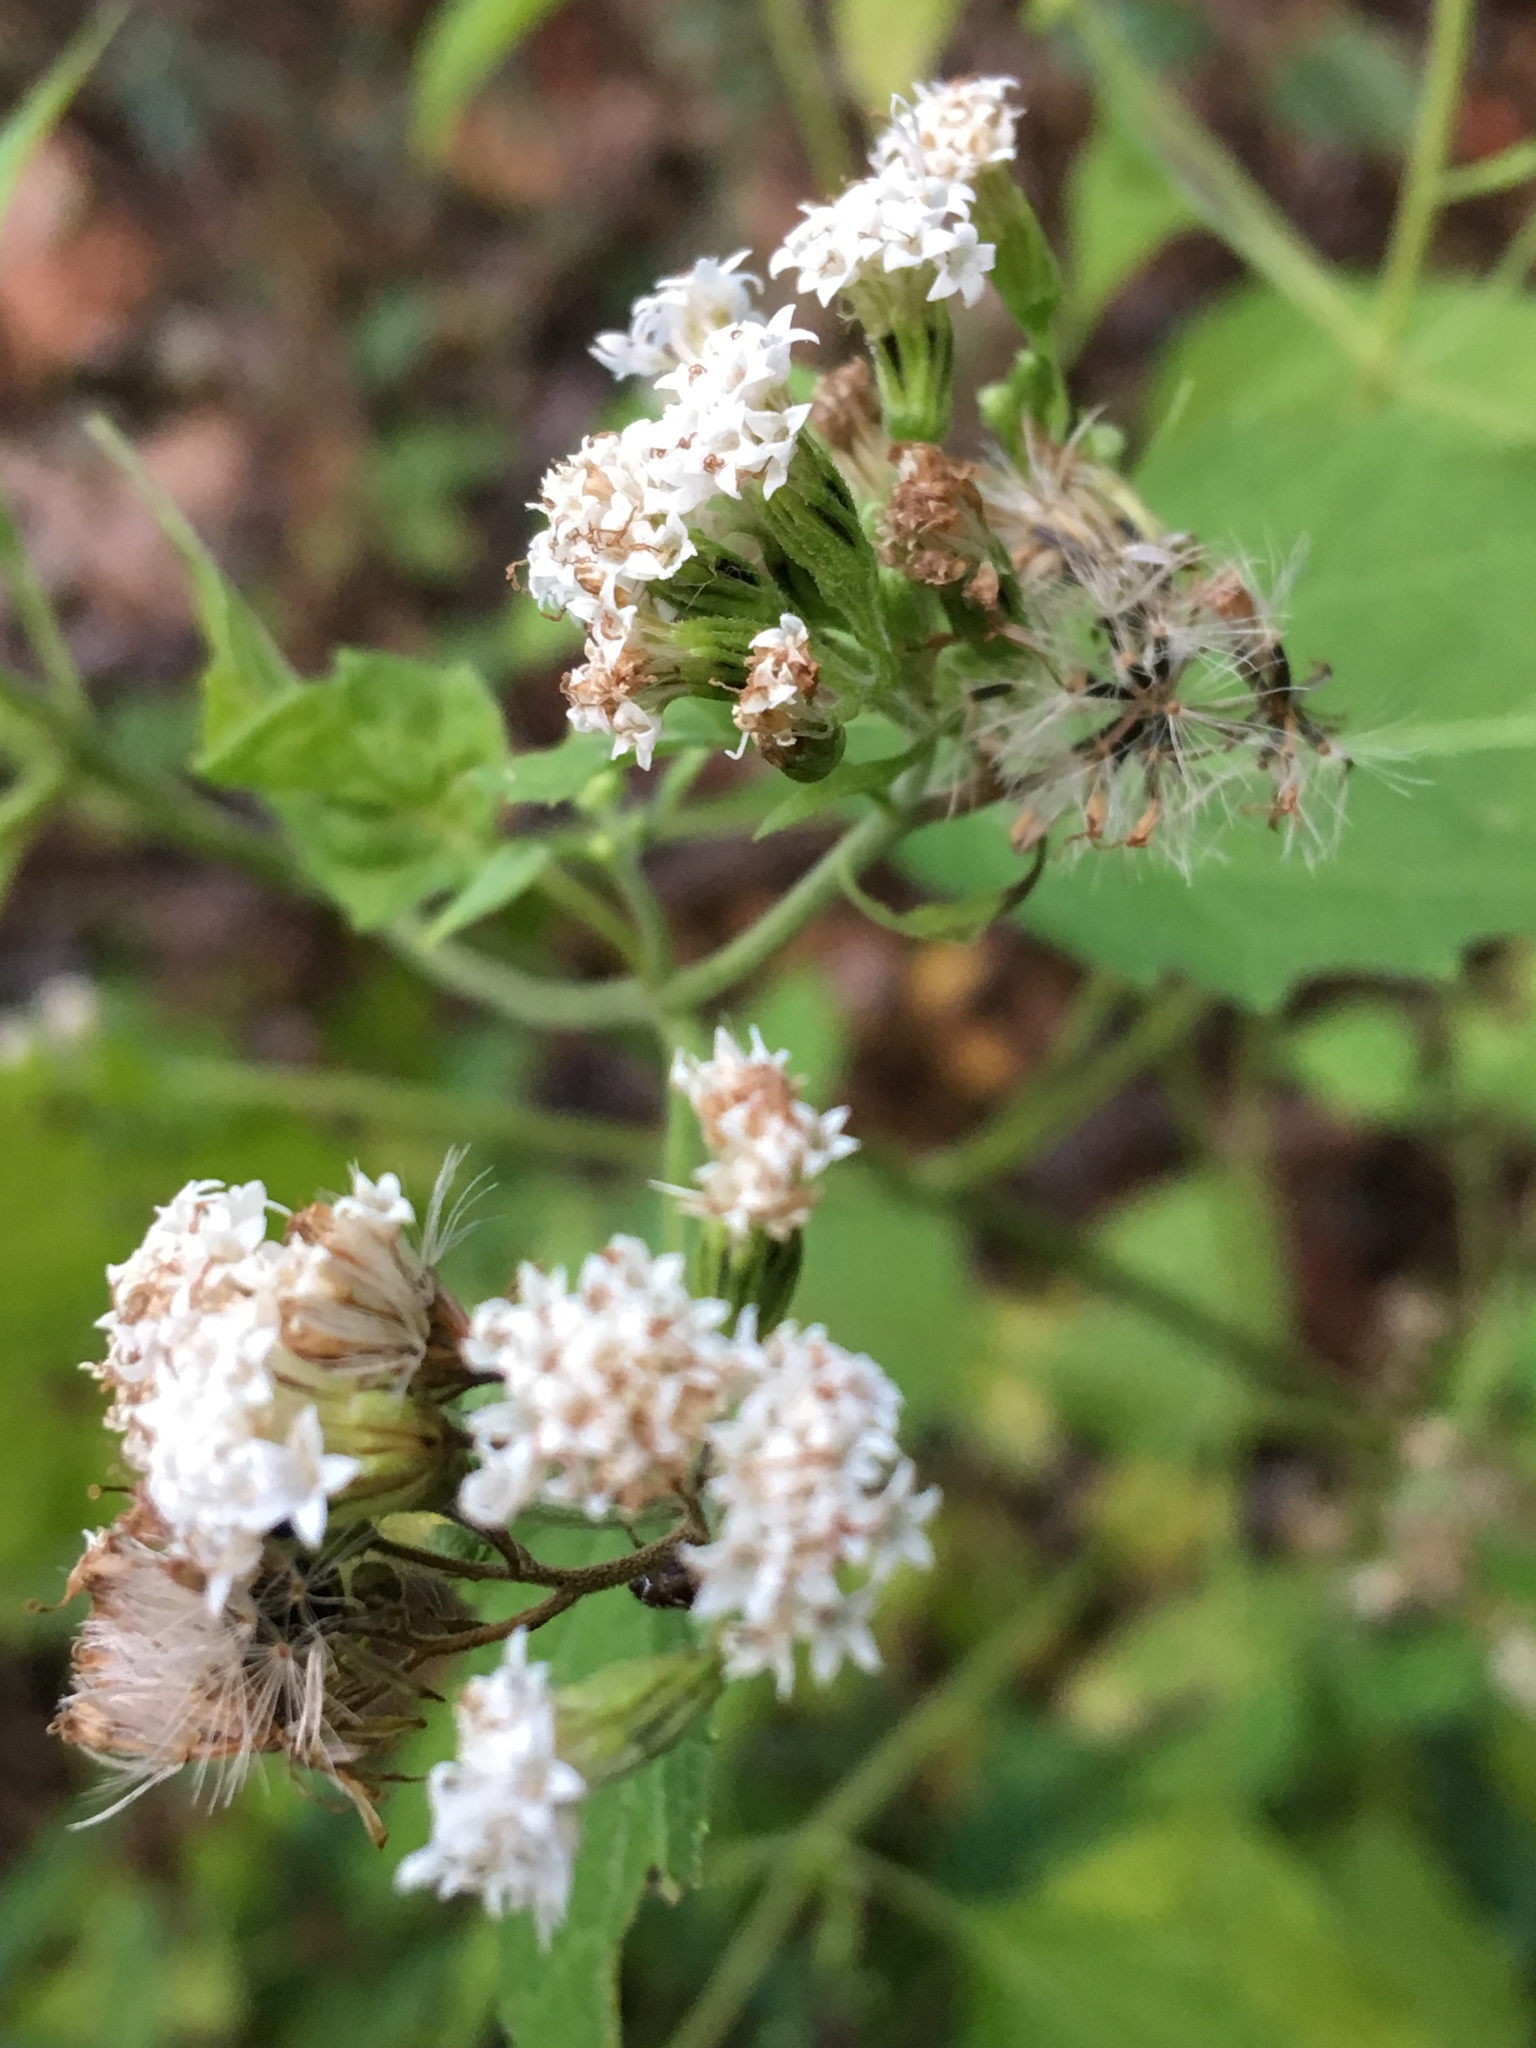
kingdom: Plantae
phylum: Tracheophyta
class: Magnoliopsida
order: Asterales
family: Asteraceae
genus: Ageratina
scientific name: Ageratina altissima
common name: White snakeroot
